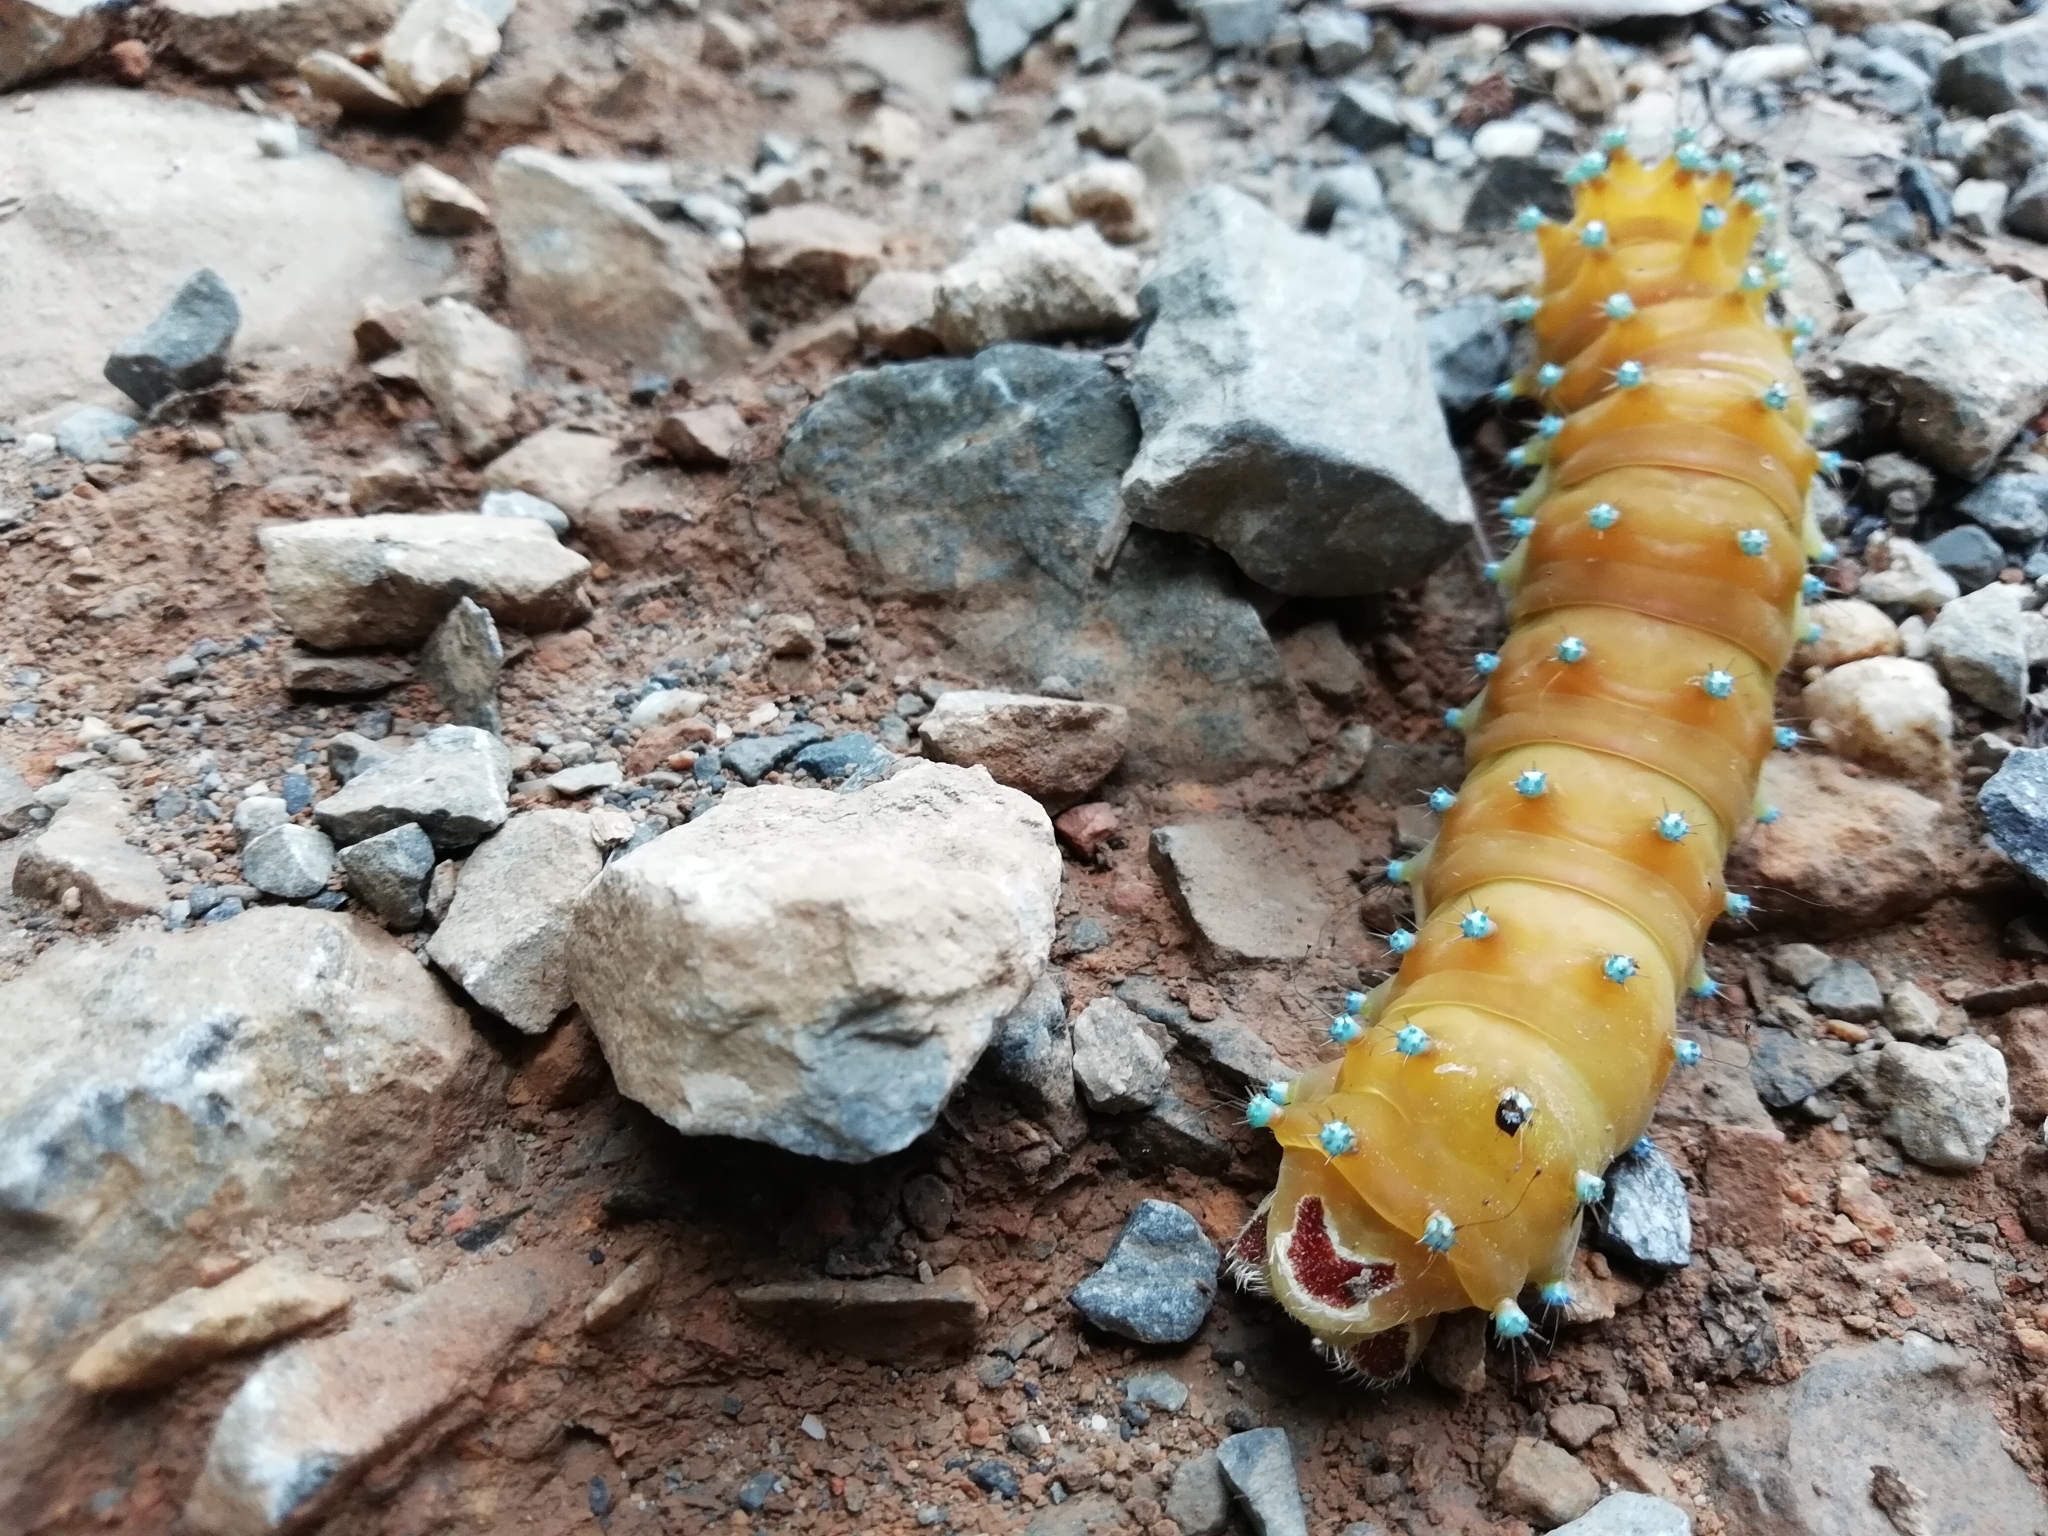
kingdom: Animalia
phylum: Arthropoda
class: Insecta
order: Lepidoptera
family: Saturniidae
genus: Saturnia
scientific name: Saturnia pyri
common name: Great peacock moth
